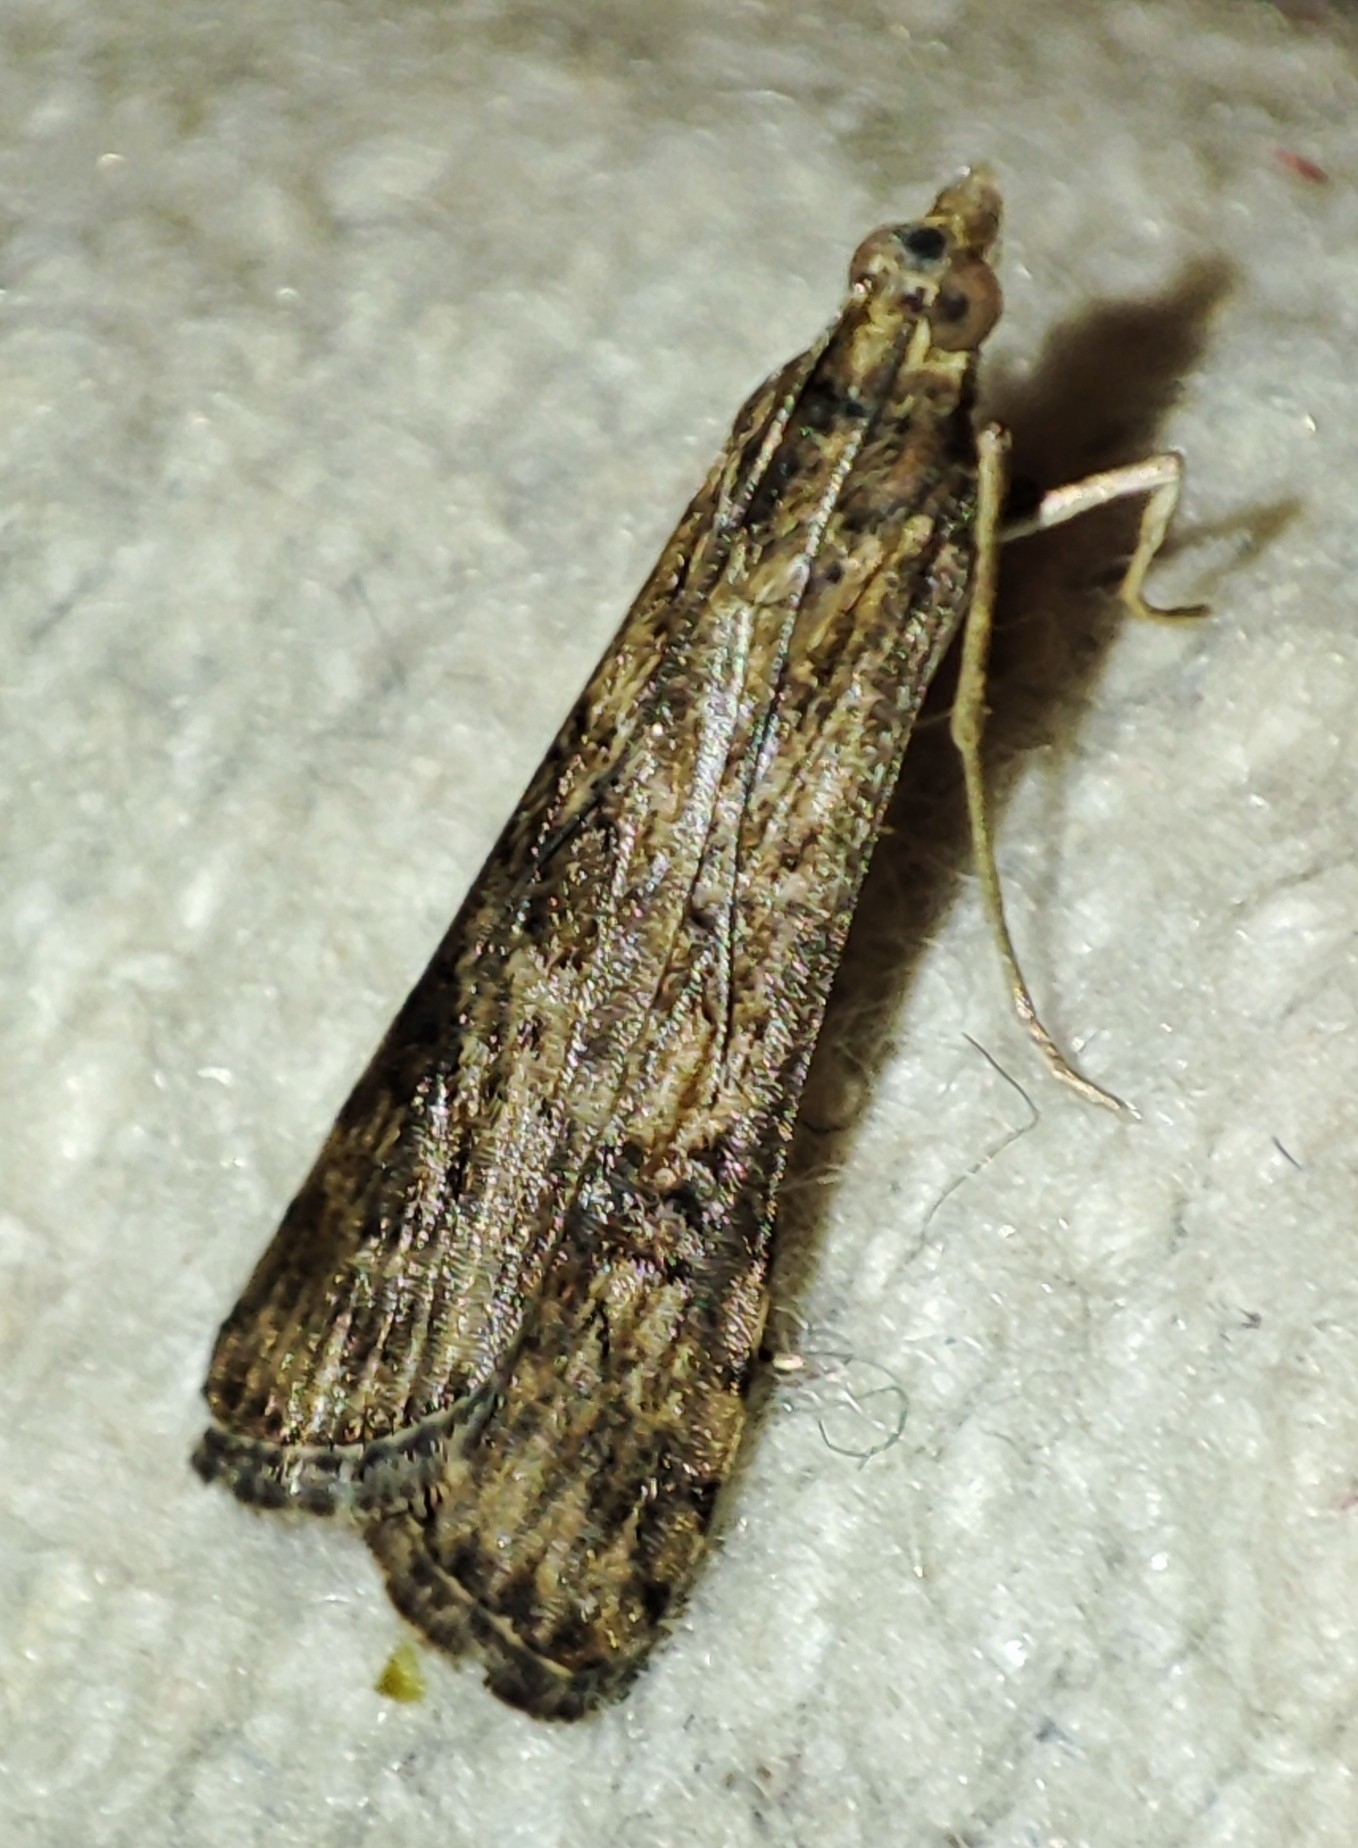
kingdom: Animalia
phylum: Arthropoda
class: Insecta
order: Lepidoptera
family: Crambidae
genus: Nomophila
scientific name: Nomophila noctuella
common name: Rush veneer
